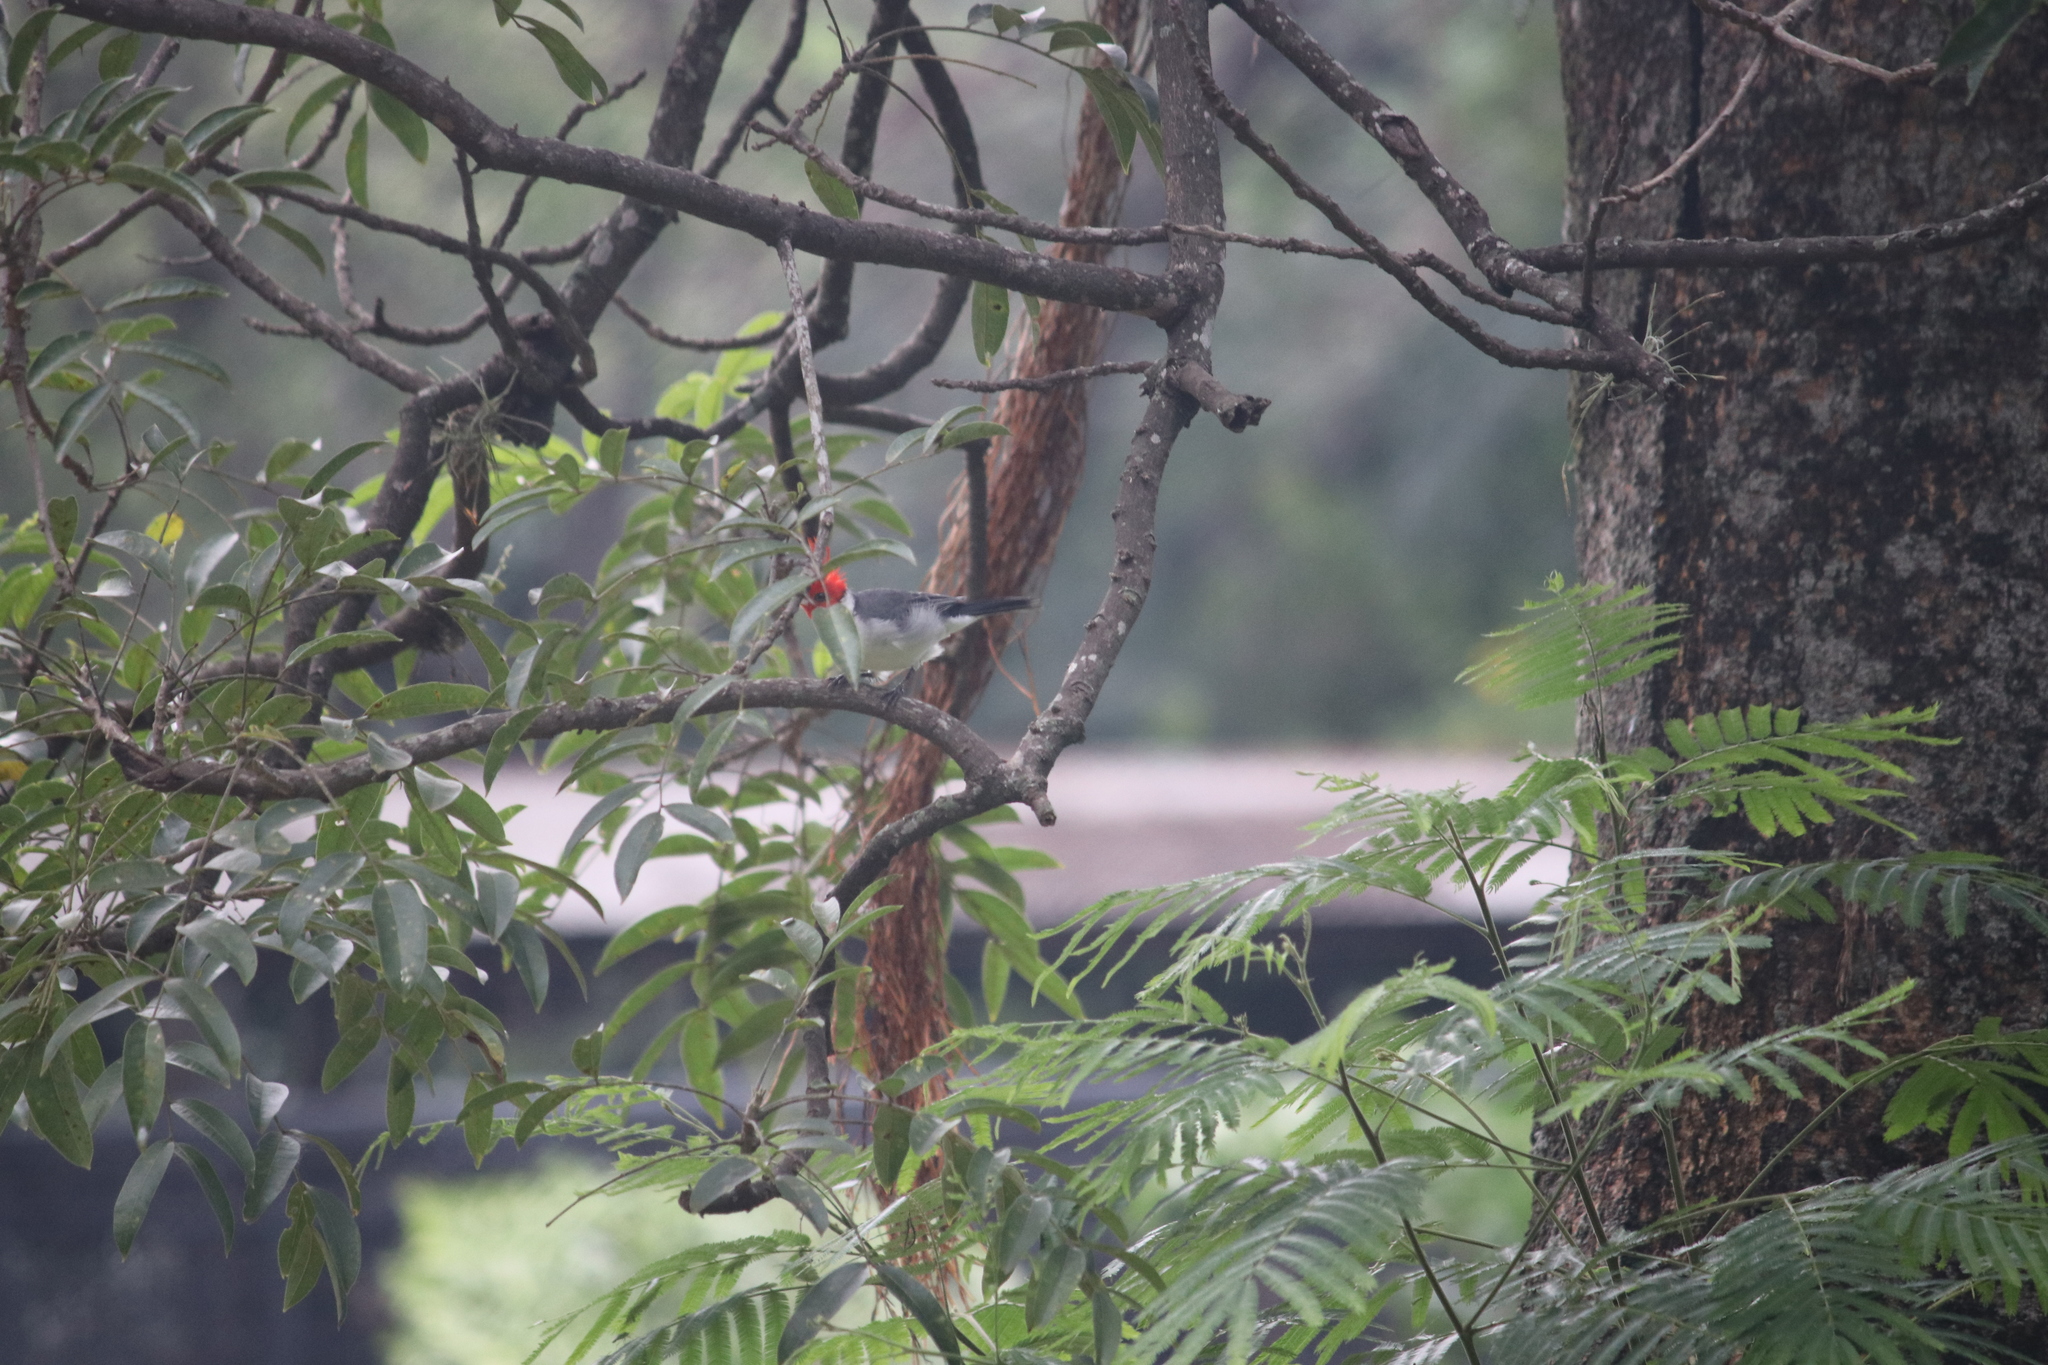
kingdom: Animalia
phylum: Chordata
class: Aves
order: Passeriformes
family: Thraupidae
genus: Paroaria
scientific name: Paroaria coronata
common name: Red-crested cardinal
